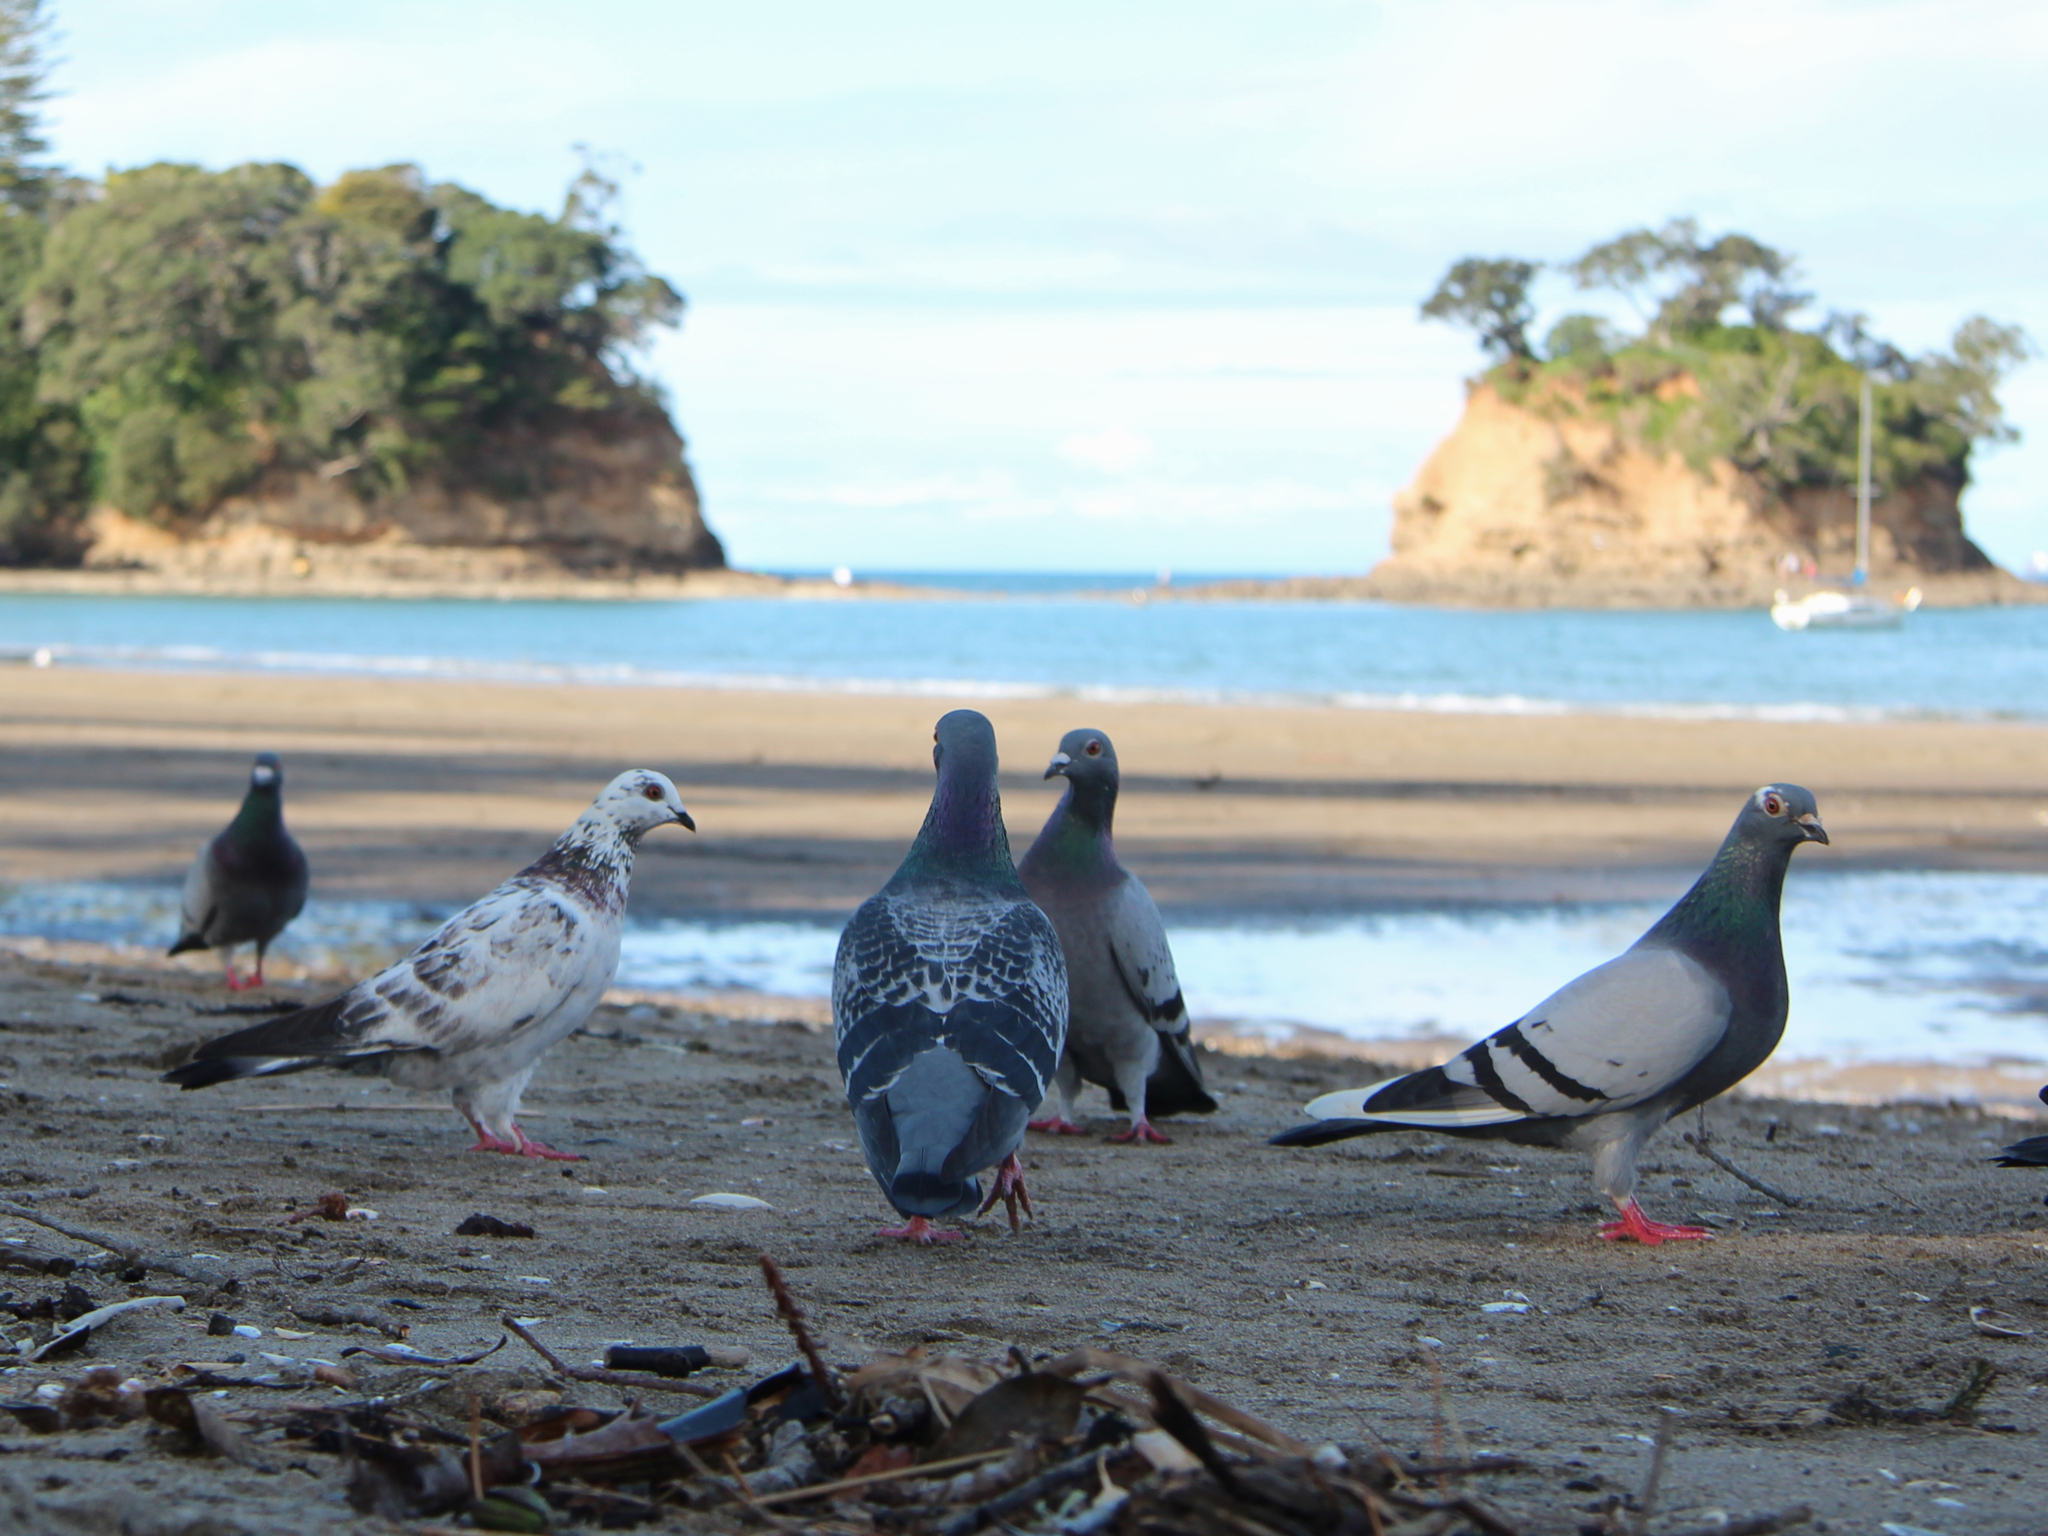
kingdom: Animalia
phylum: Chordata
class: Aves
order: Columbiformes
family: Columbidae
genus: Columba
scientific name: Columba livia
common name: Rock pigeon
